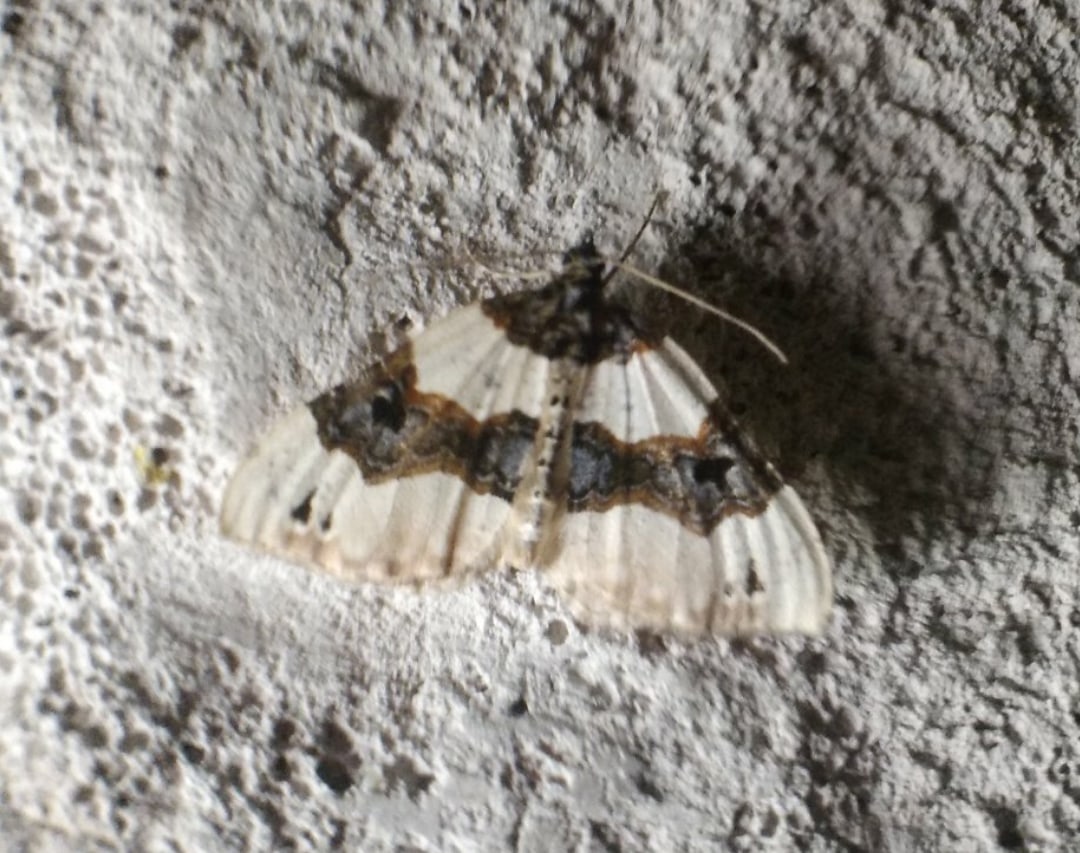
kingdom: Animalia
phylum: Arthropoda
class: Insecta
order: Lepidoptera
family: Geometridae
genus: Cosmorhoe
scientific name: Cosmorhoe ocellata
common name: Purple bar
